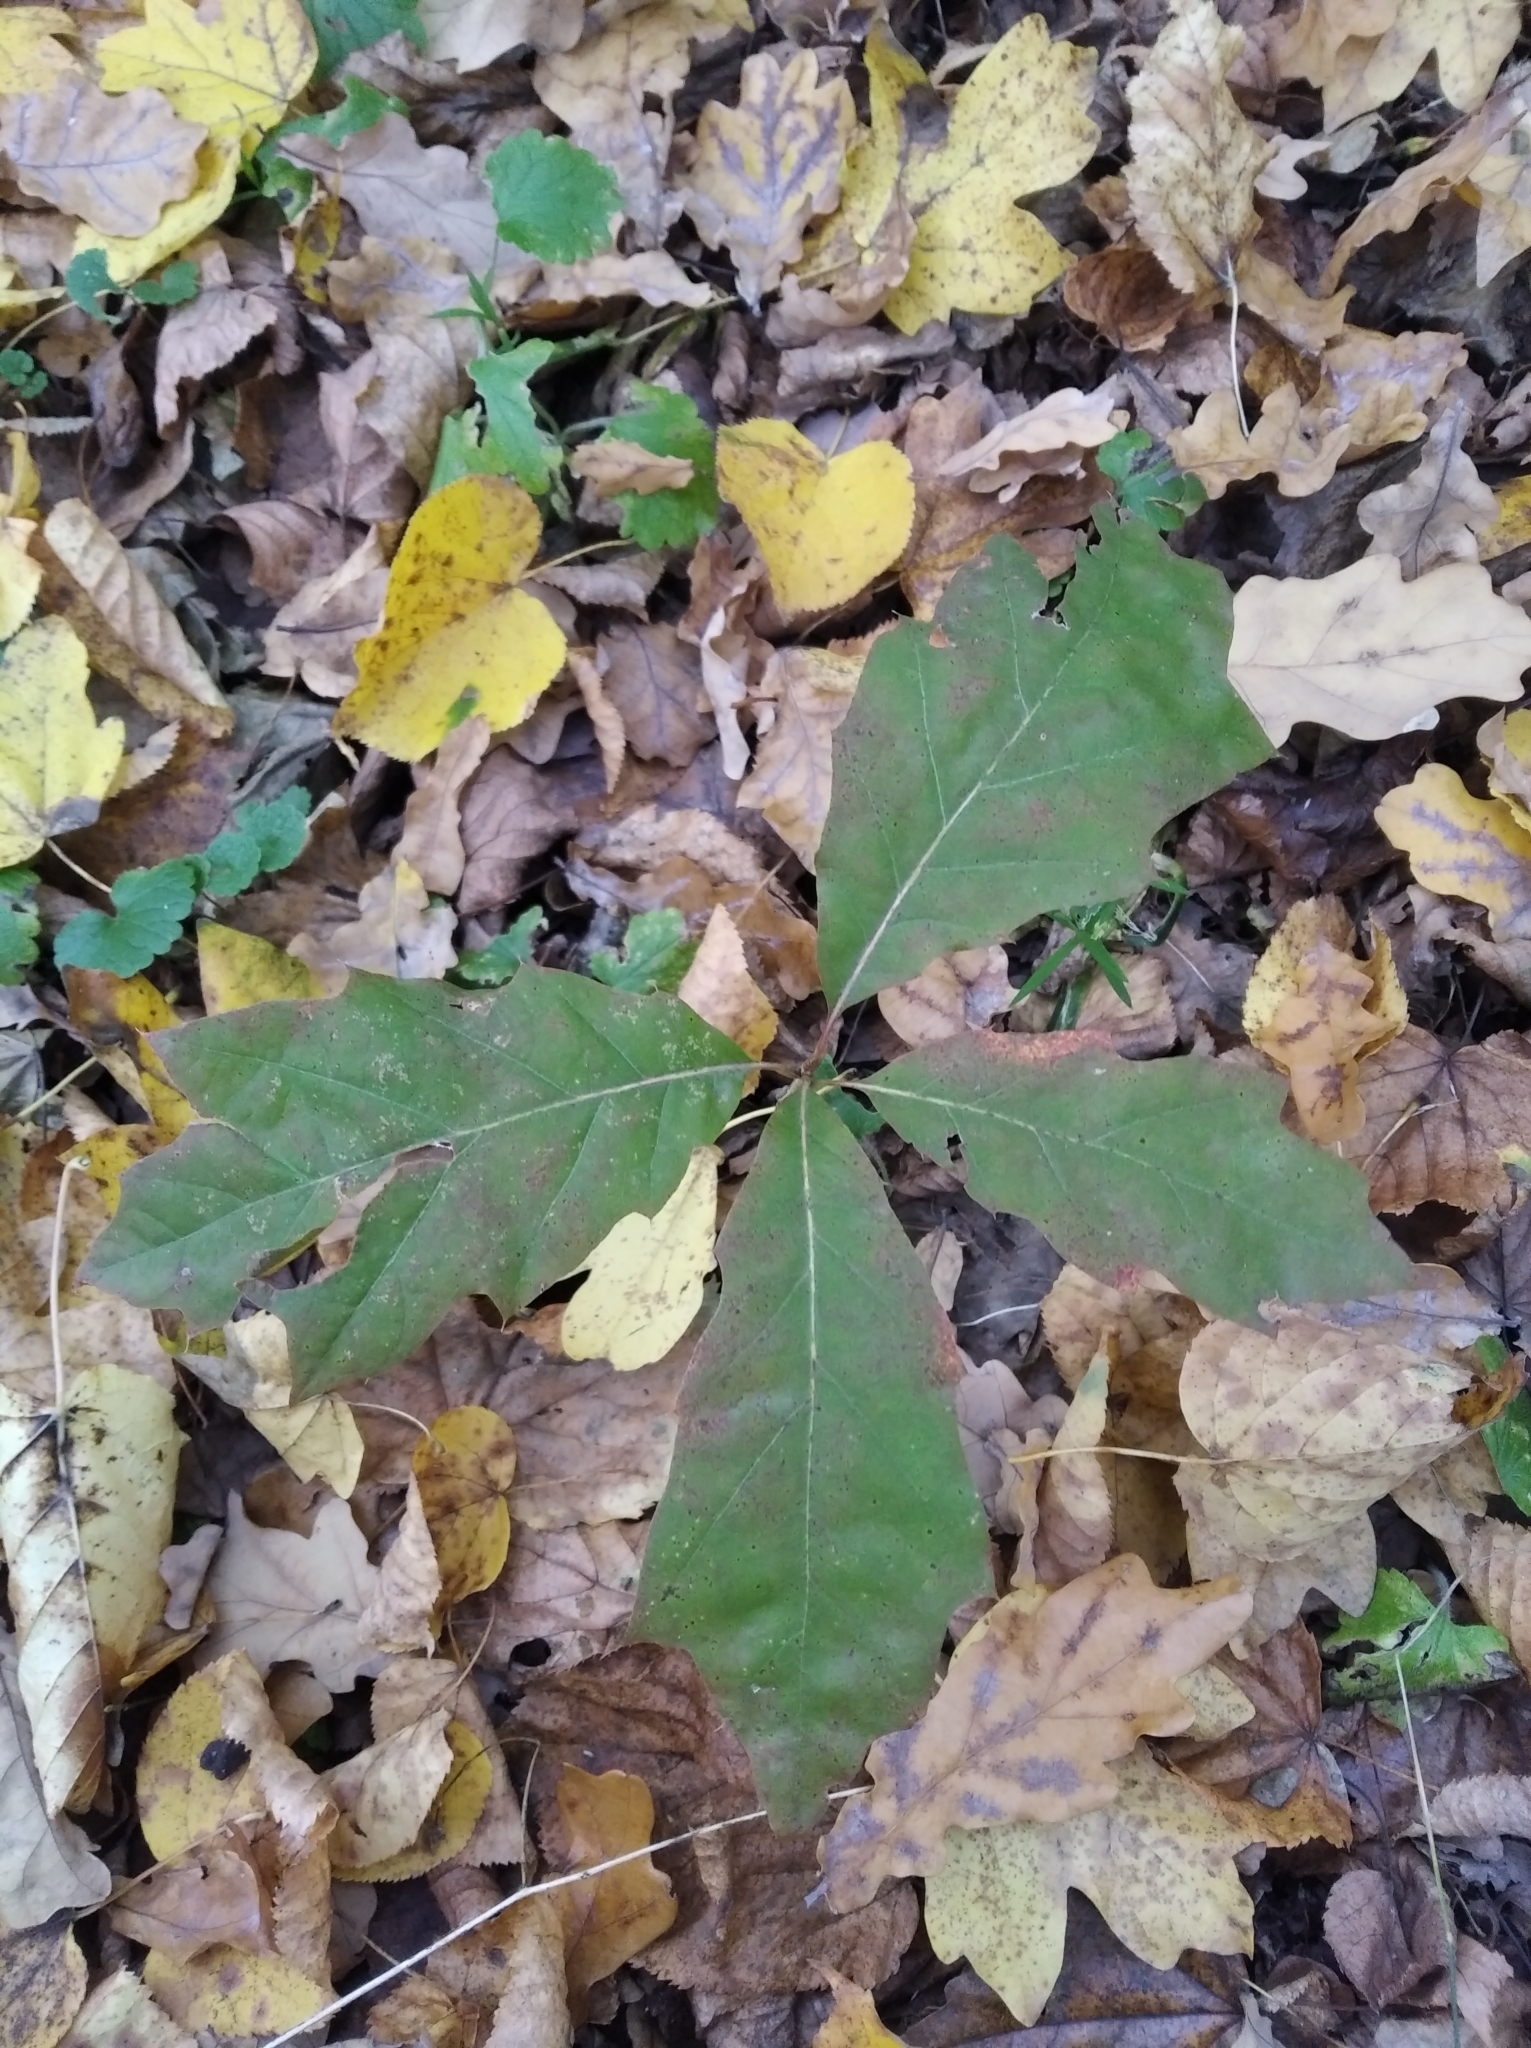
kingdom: Plantae
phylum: Tracheophyta
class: Magnoliopsida
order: Fagales
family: Fagaceae
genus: Quercus
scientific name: Quercus rubra
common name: Red oak
